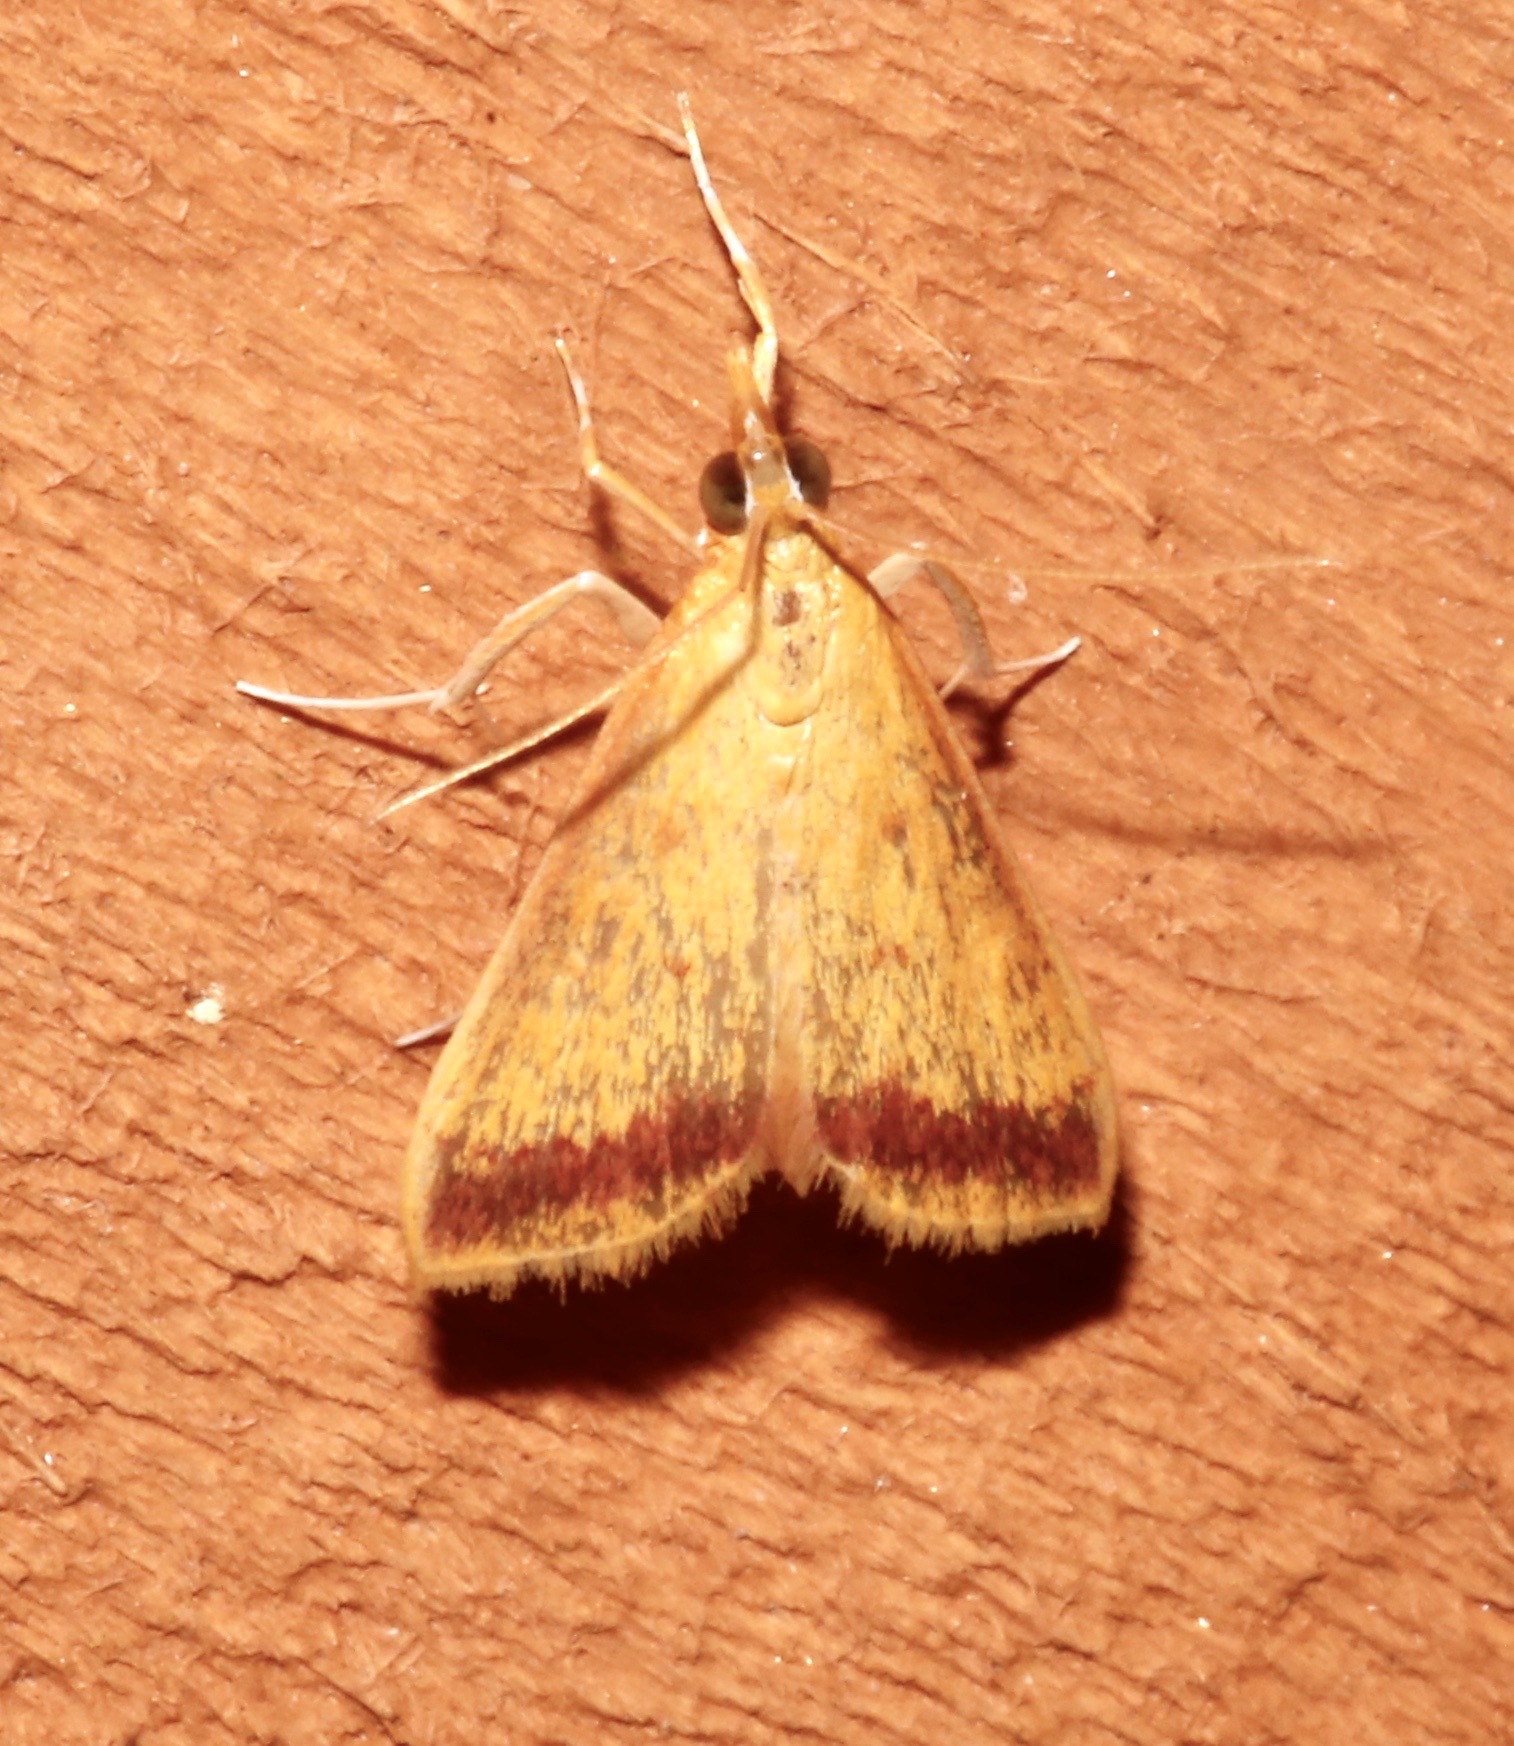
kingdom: Animalia
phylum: Arthropoda
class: Insecta
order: Lepidoptera
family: Crambidae
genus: Hyalorista
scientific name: Hyalorista taeniolalis
